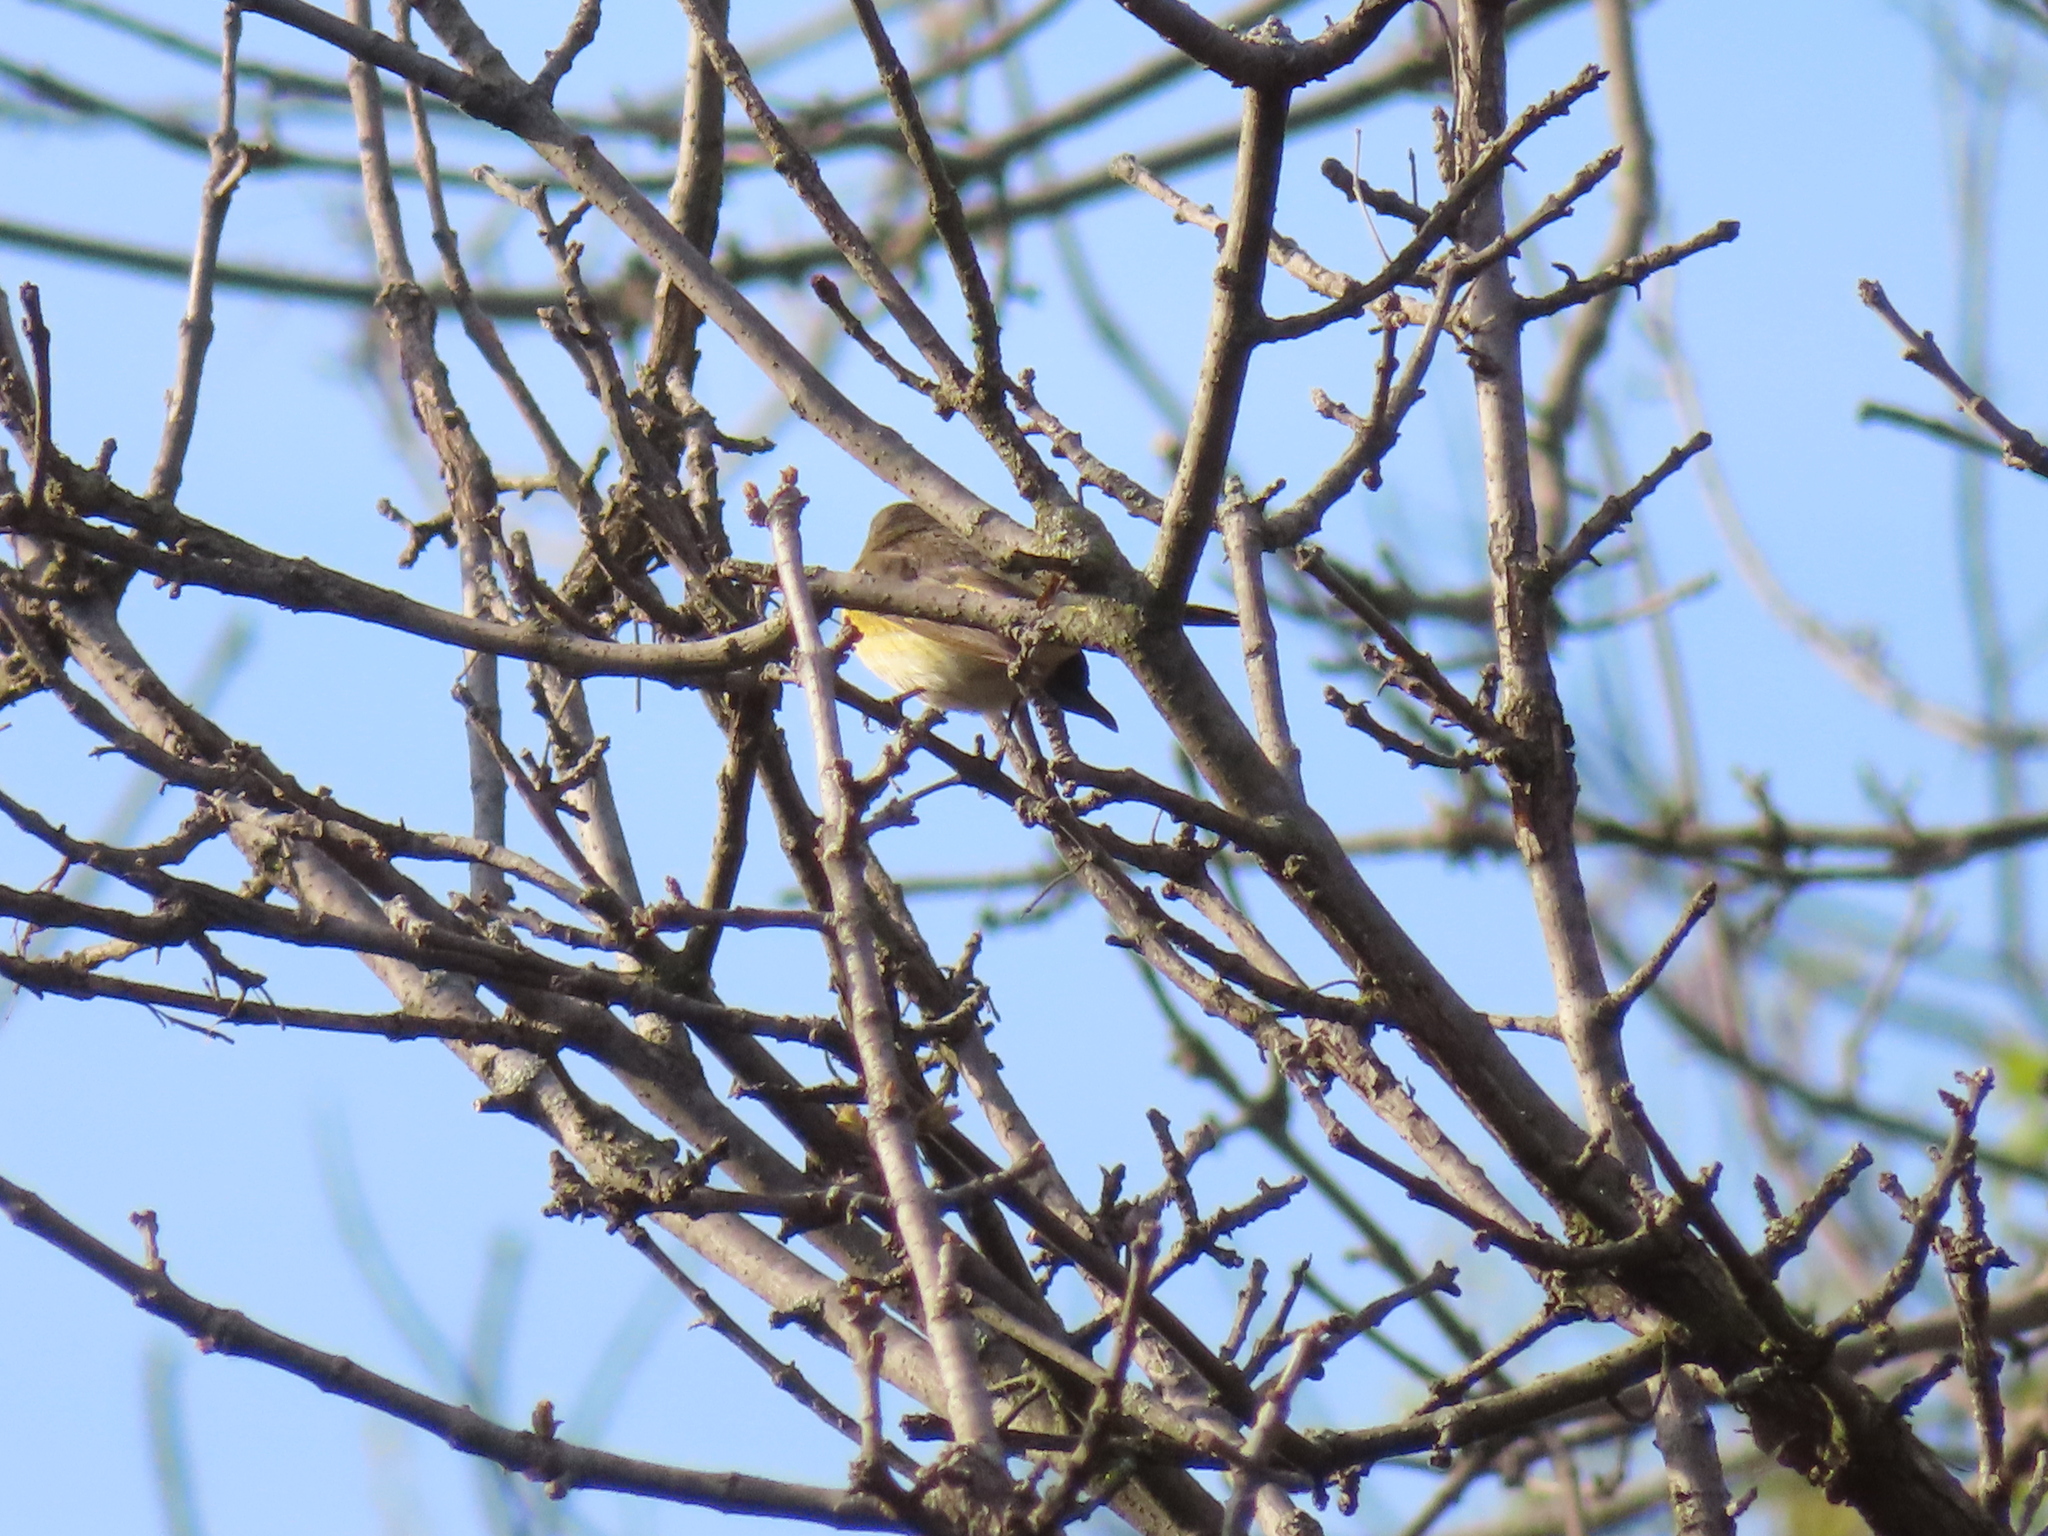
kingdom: Animalia
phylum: Chordata
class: Aves
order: Passeriformes
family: Parulidae
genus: Setophaga
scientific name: Setophaga ruticilla
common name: American redstart
